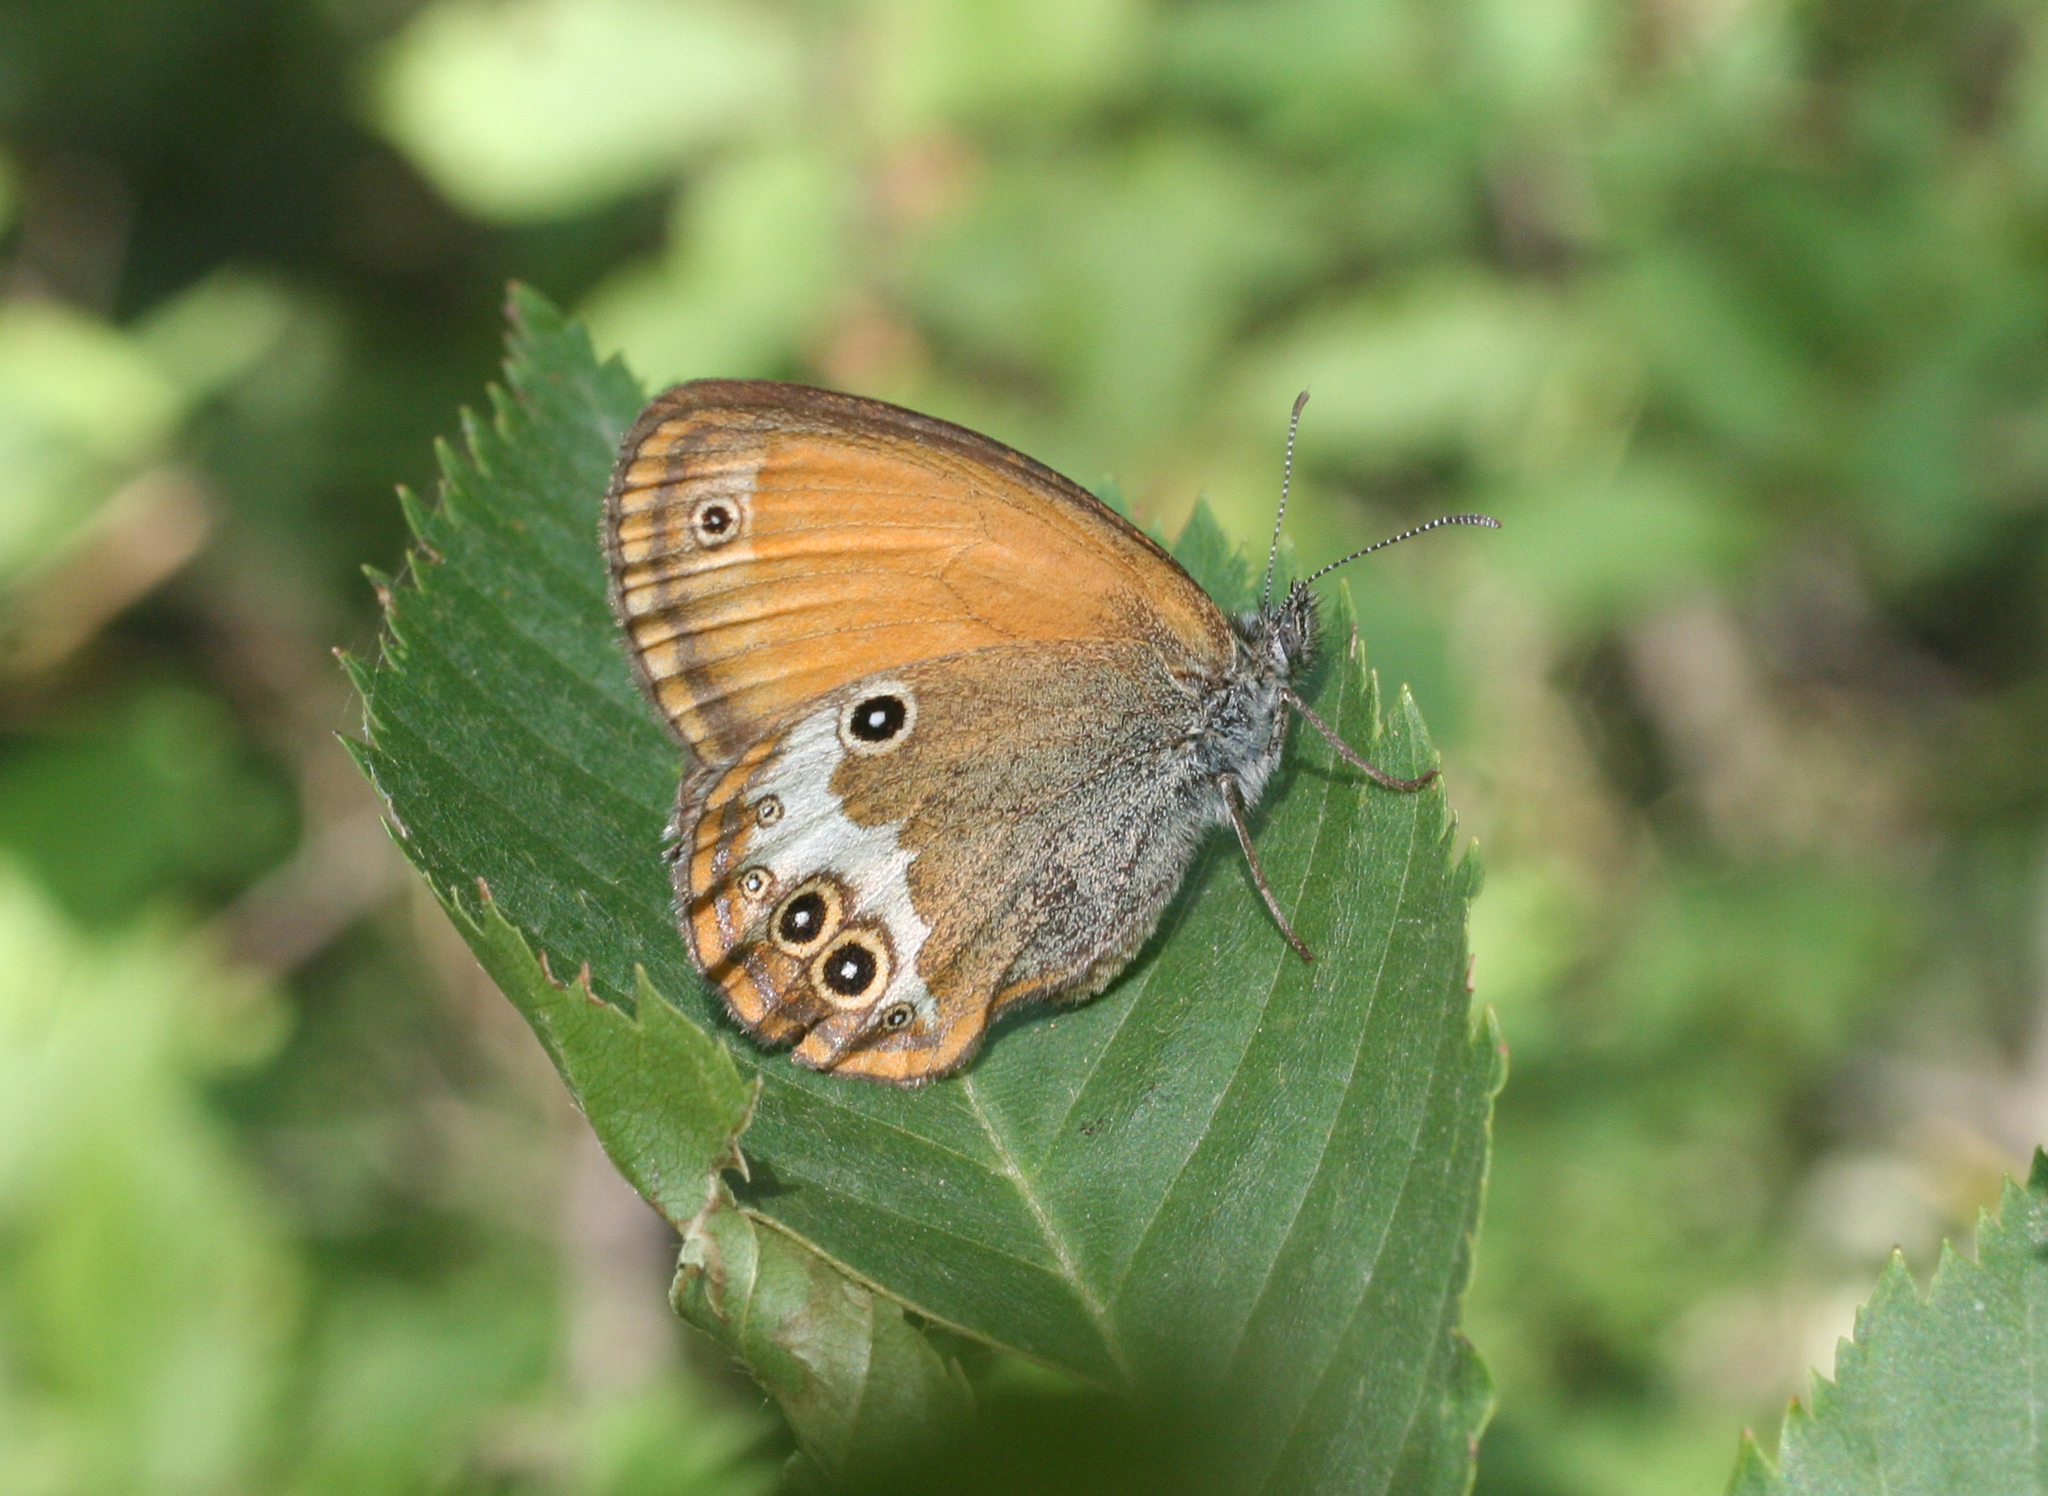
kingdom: Animalia
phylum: Arthropoda
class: Insecta
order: Lepidoptera
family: Nymphalidae
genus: Coenonympha
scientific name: Coenonympha arcania
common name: Pearly heath
